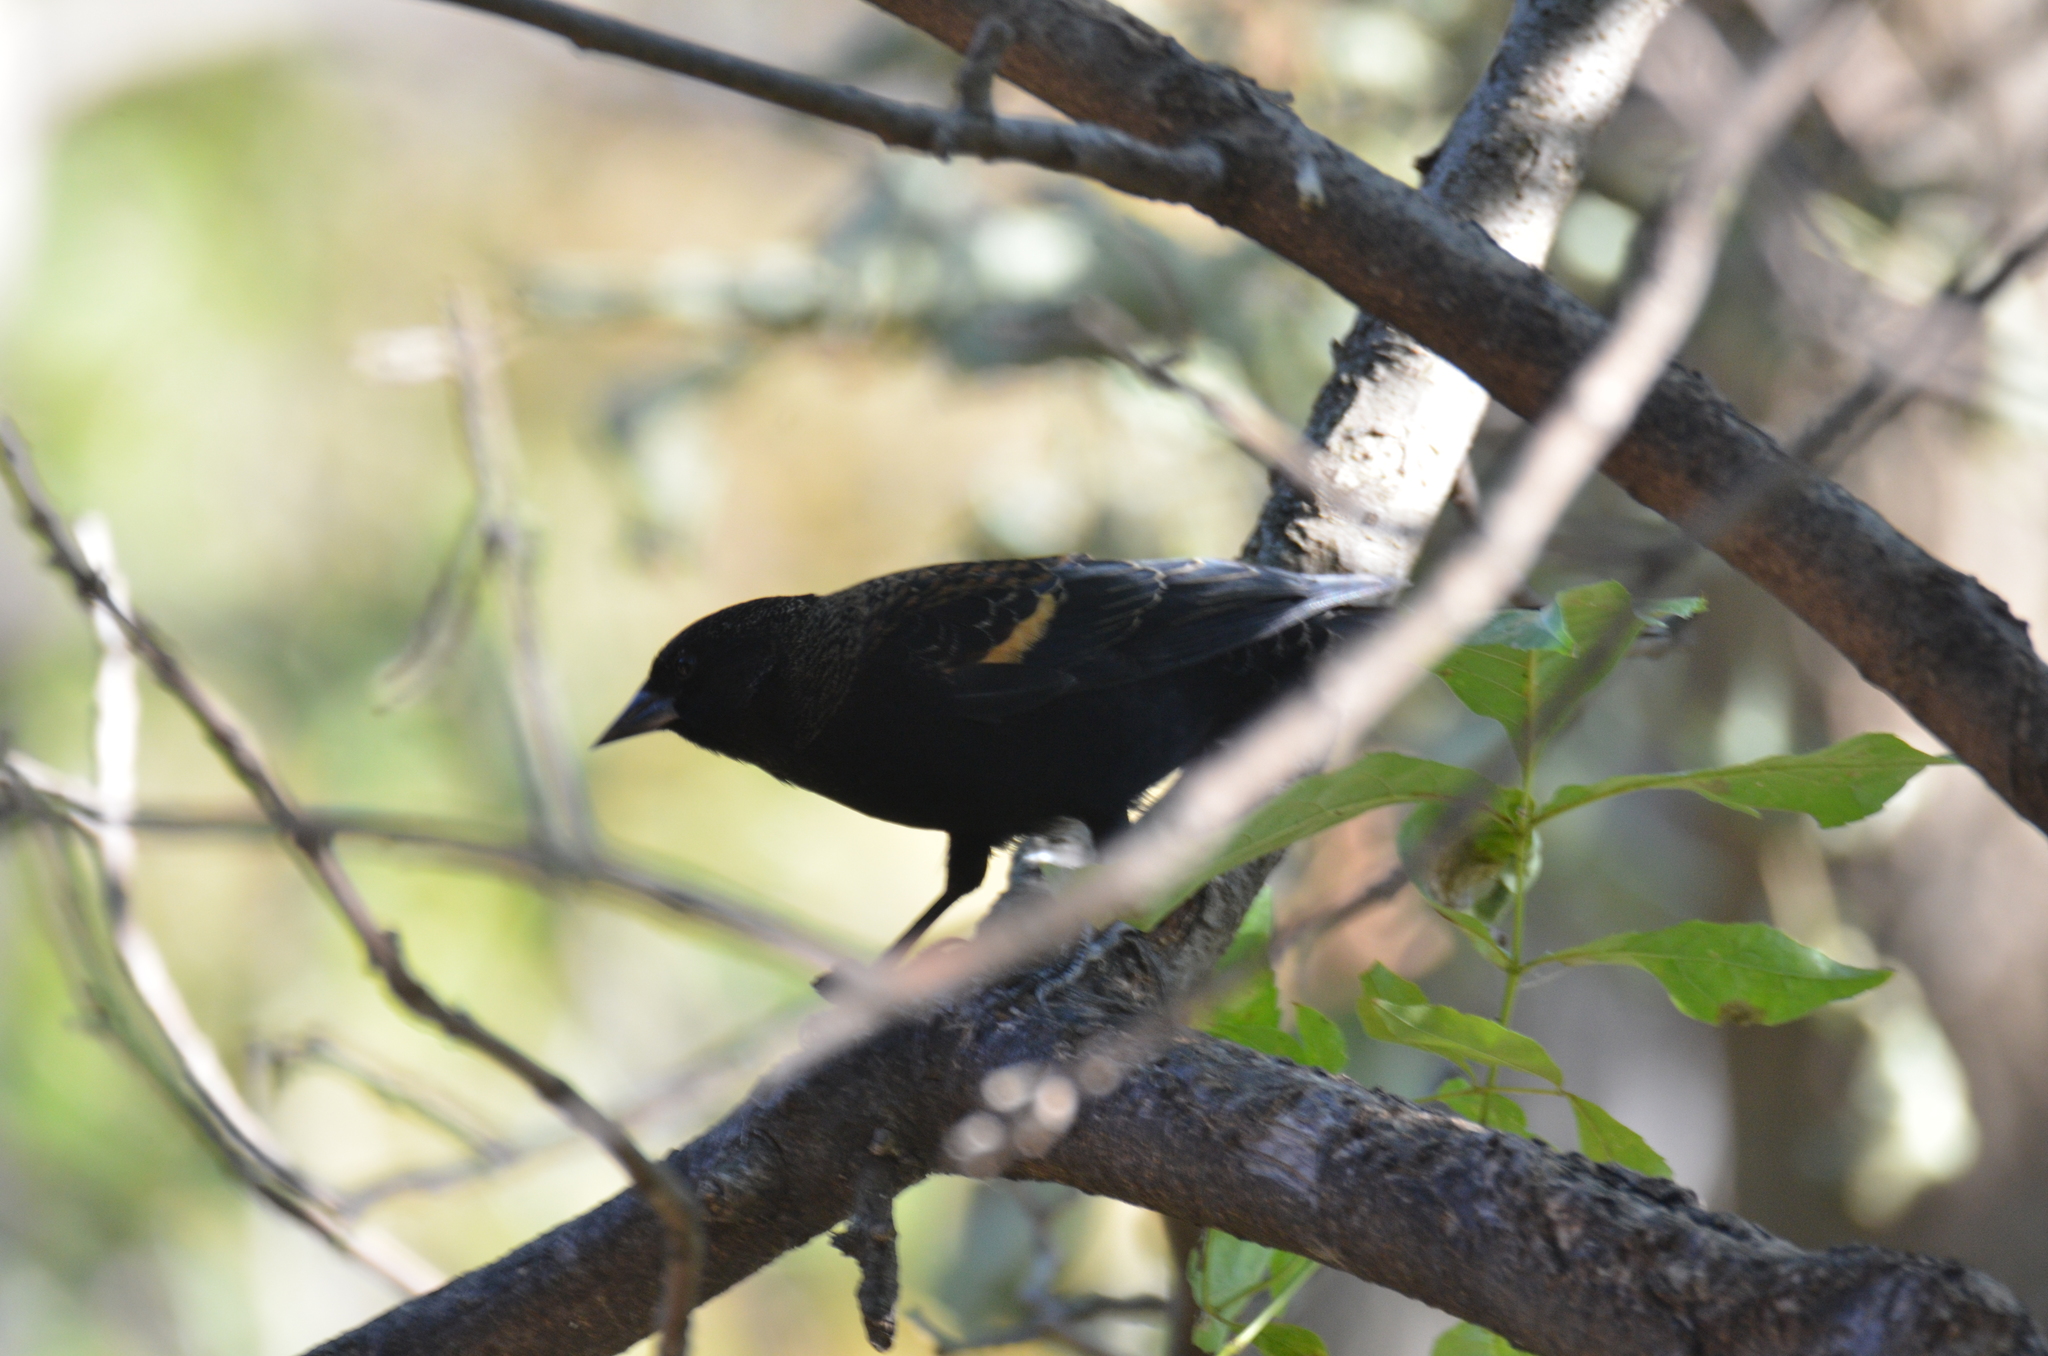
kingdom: Animalia
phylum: Chordata
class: Aves
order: Passeriformes
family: Icteridae
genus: Agelaius
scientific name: Agelaius phoeniceus
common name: Red-winged blackbird
